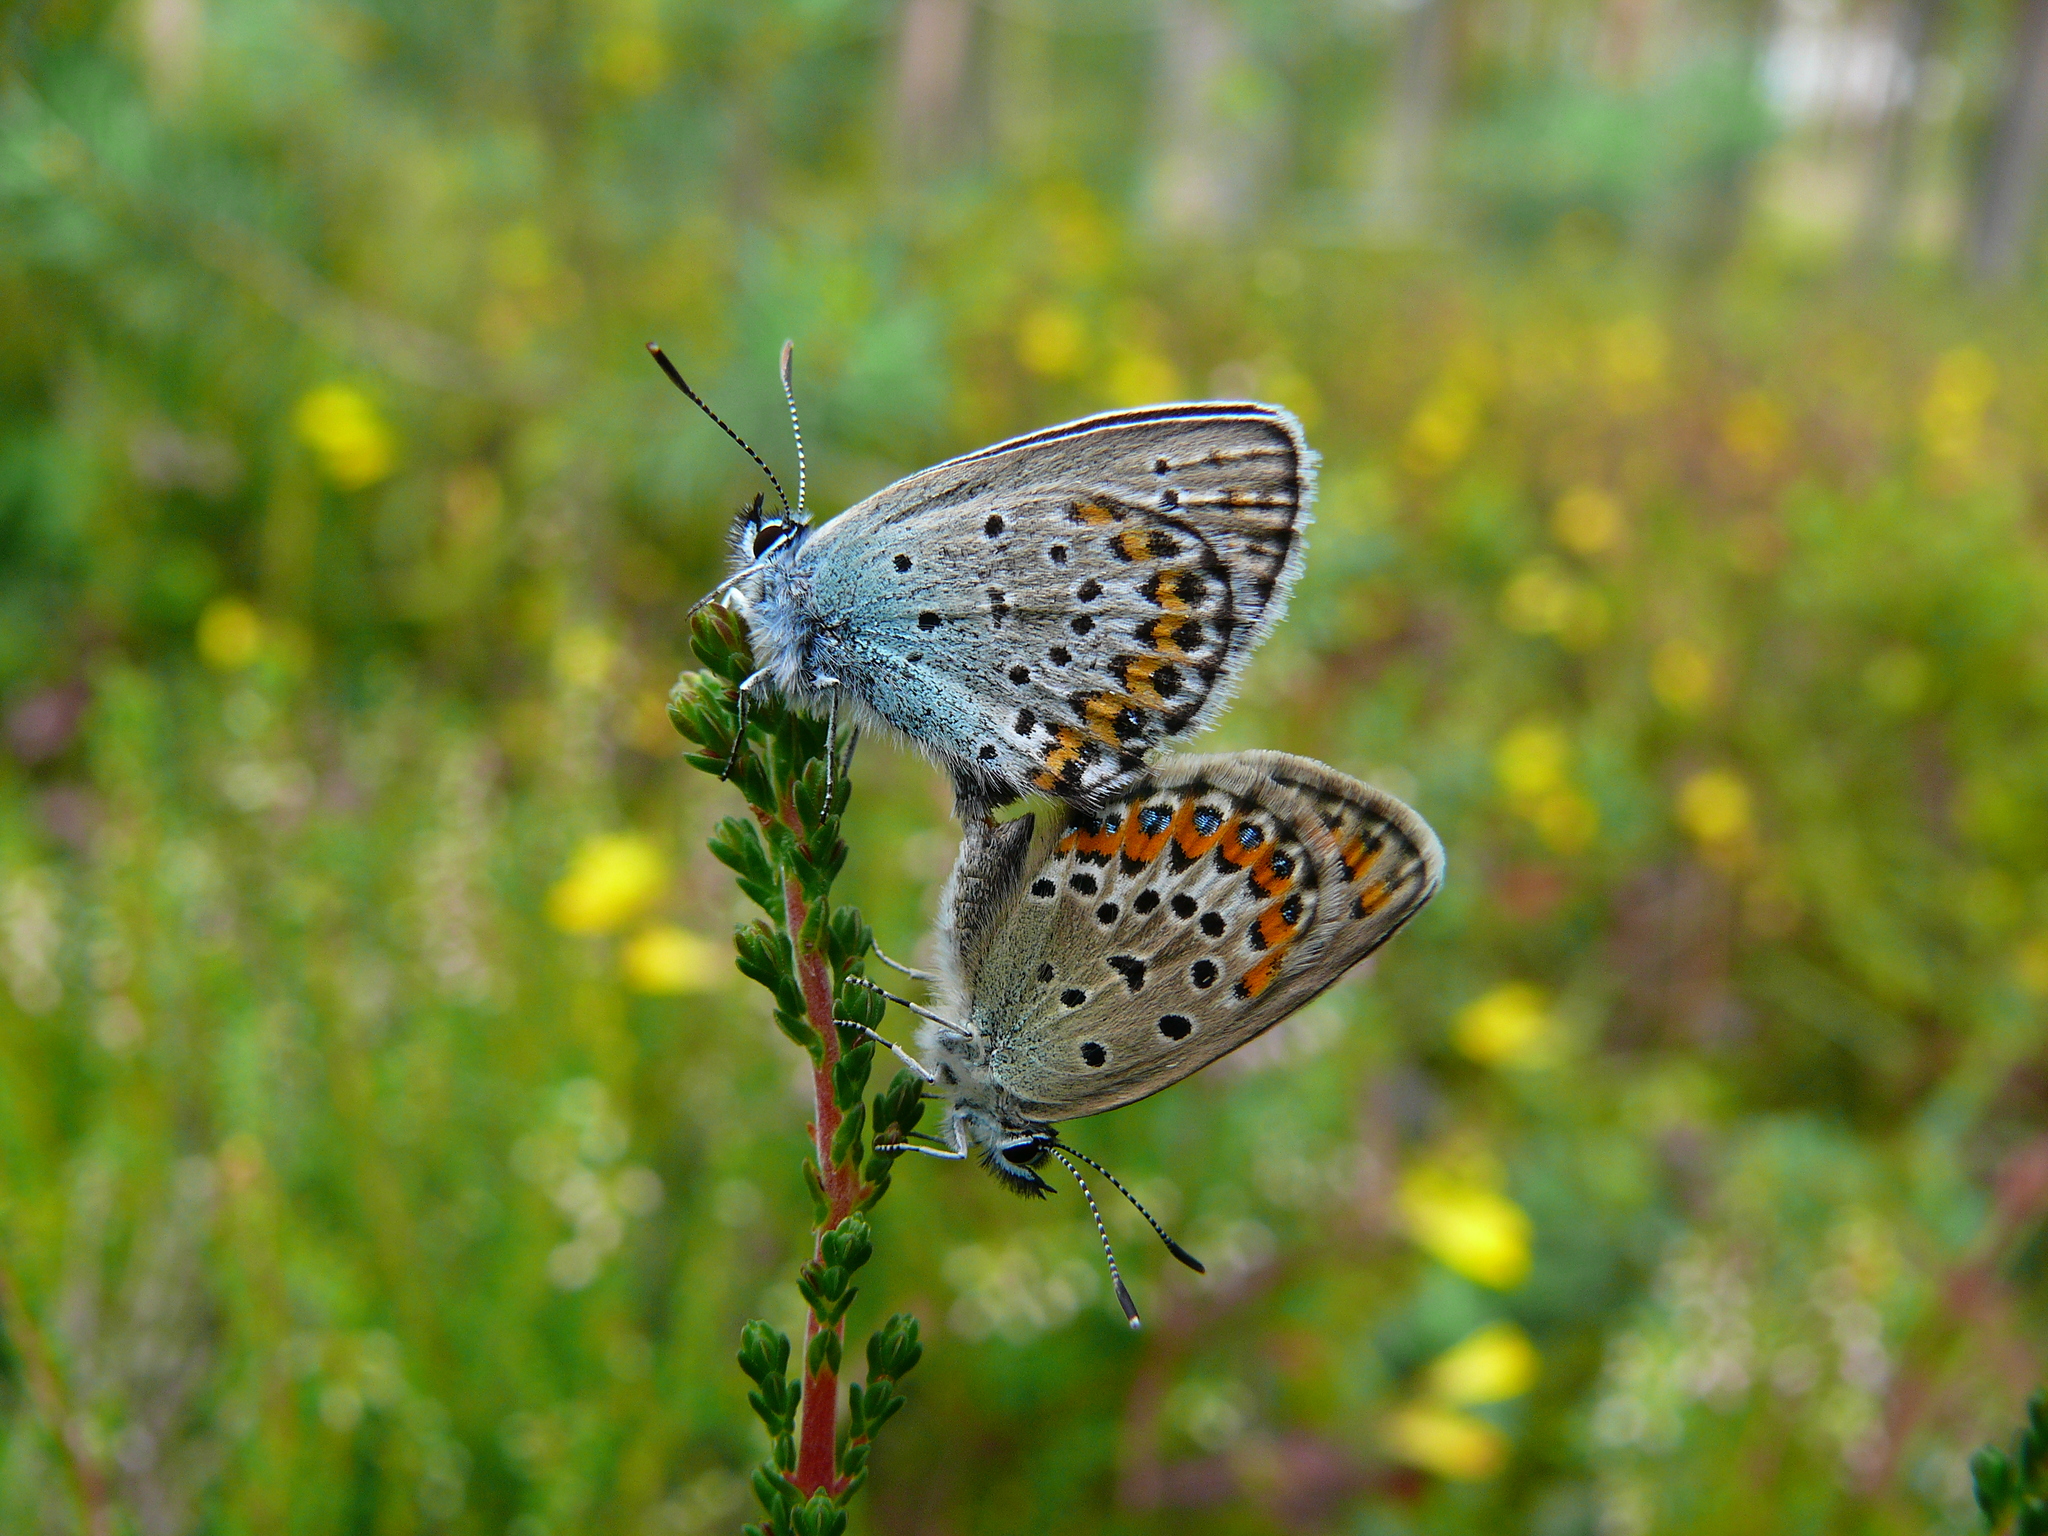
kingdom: Animalia
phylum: Arthropoda
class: Insecta
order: Lepidoptera
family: Lycaenidae
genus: Plebejus
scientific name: Plebejus argus
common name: Silver-studded blue
